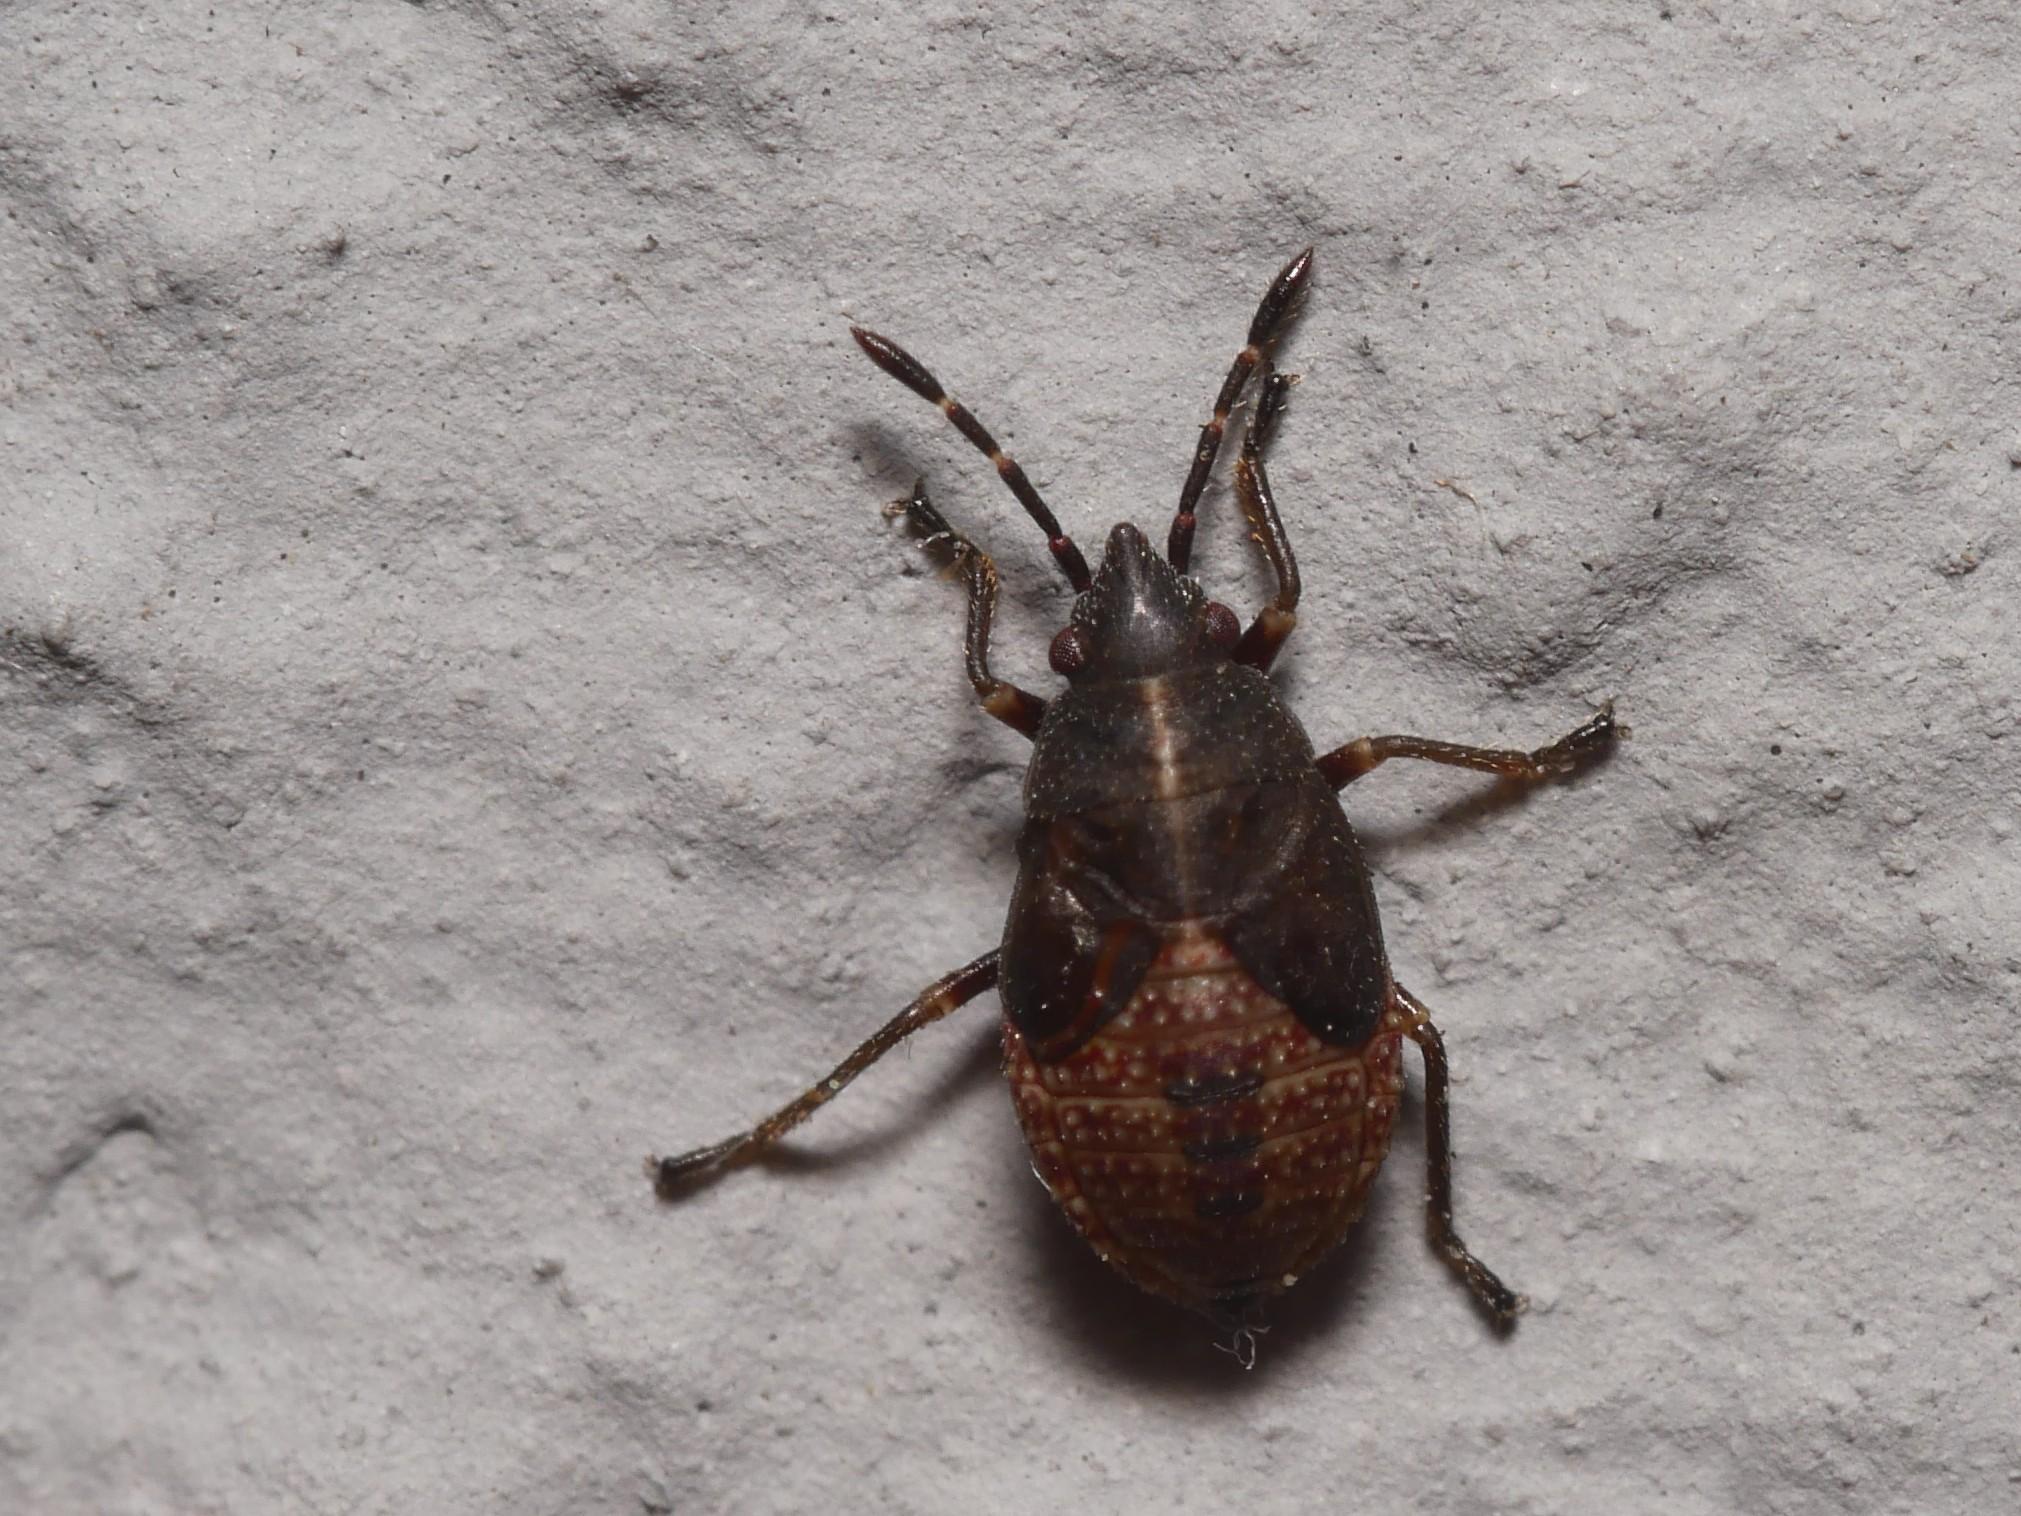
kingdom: Animalia
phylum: Arthropoda
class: Insecta
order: Hemiptera
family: Lygaeidae
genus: Kleidocerys
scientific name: Kleidocerys resedae
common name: Birch catkin bug
